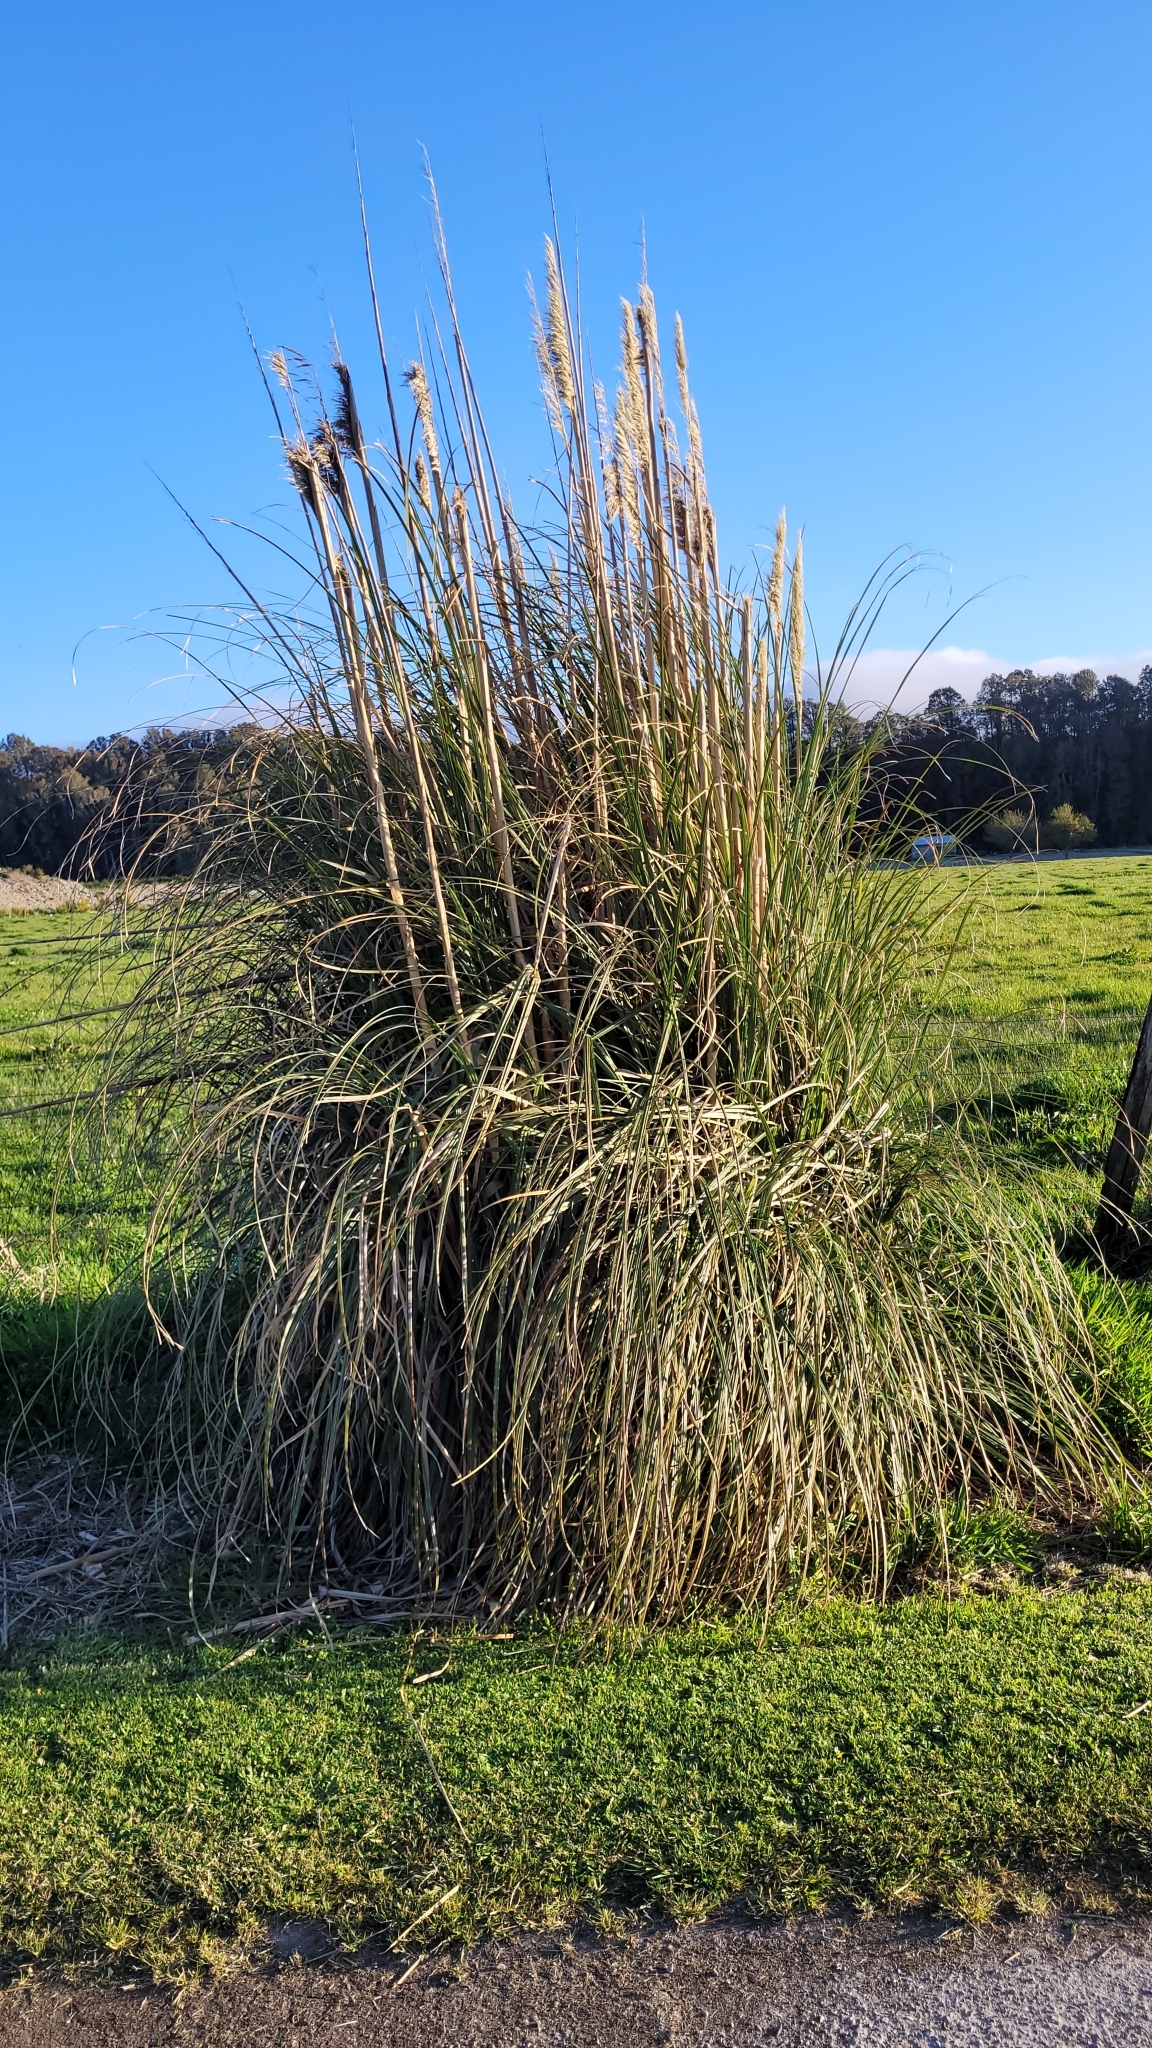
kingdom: Plantae
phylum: Tracheophyta
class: Liliopsida
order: Poales
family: Poaceae
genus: Cortaderia
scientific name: Cortaderia selloana
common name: Uruguayan pampas grass
